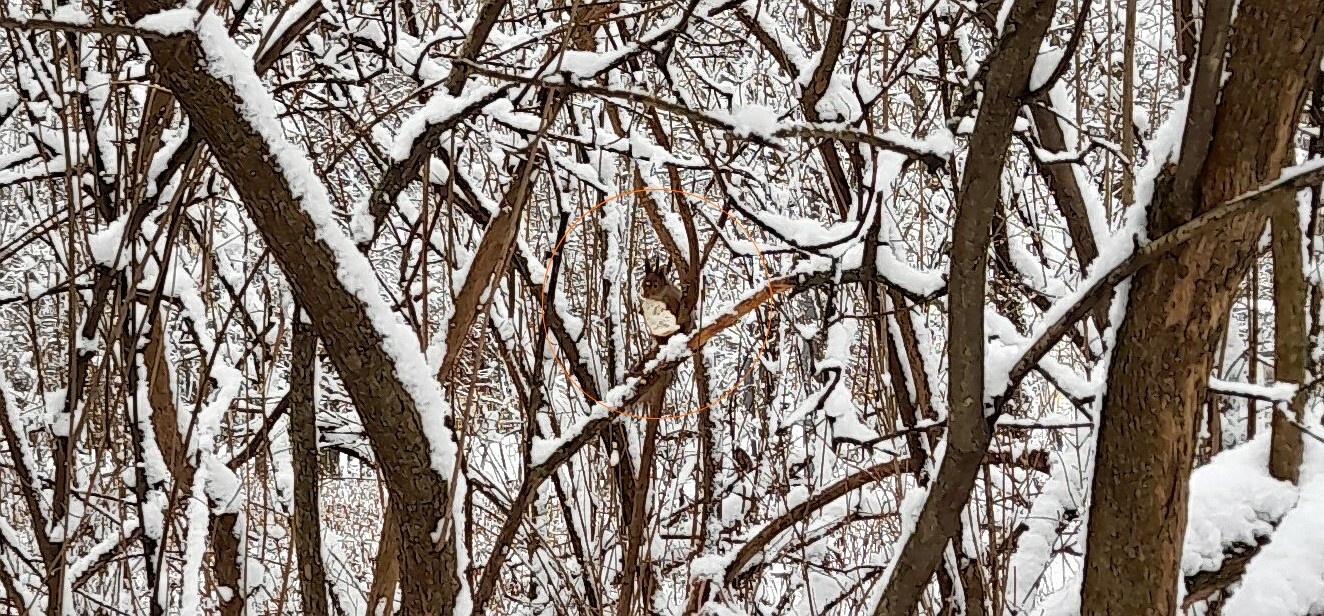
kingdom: Animalia
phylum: Chordata
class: Mammalia
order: Rodentia
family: Sciuridae
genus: Sciurus
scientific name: Sciurus vulgaris
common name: Eurasian red squirrel
